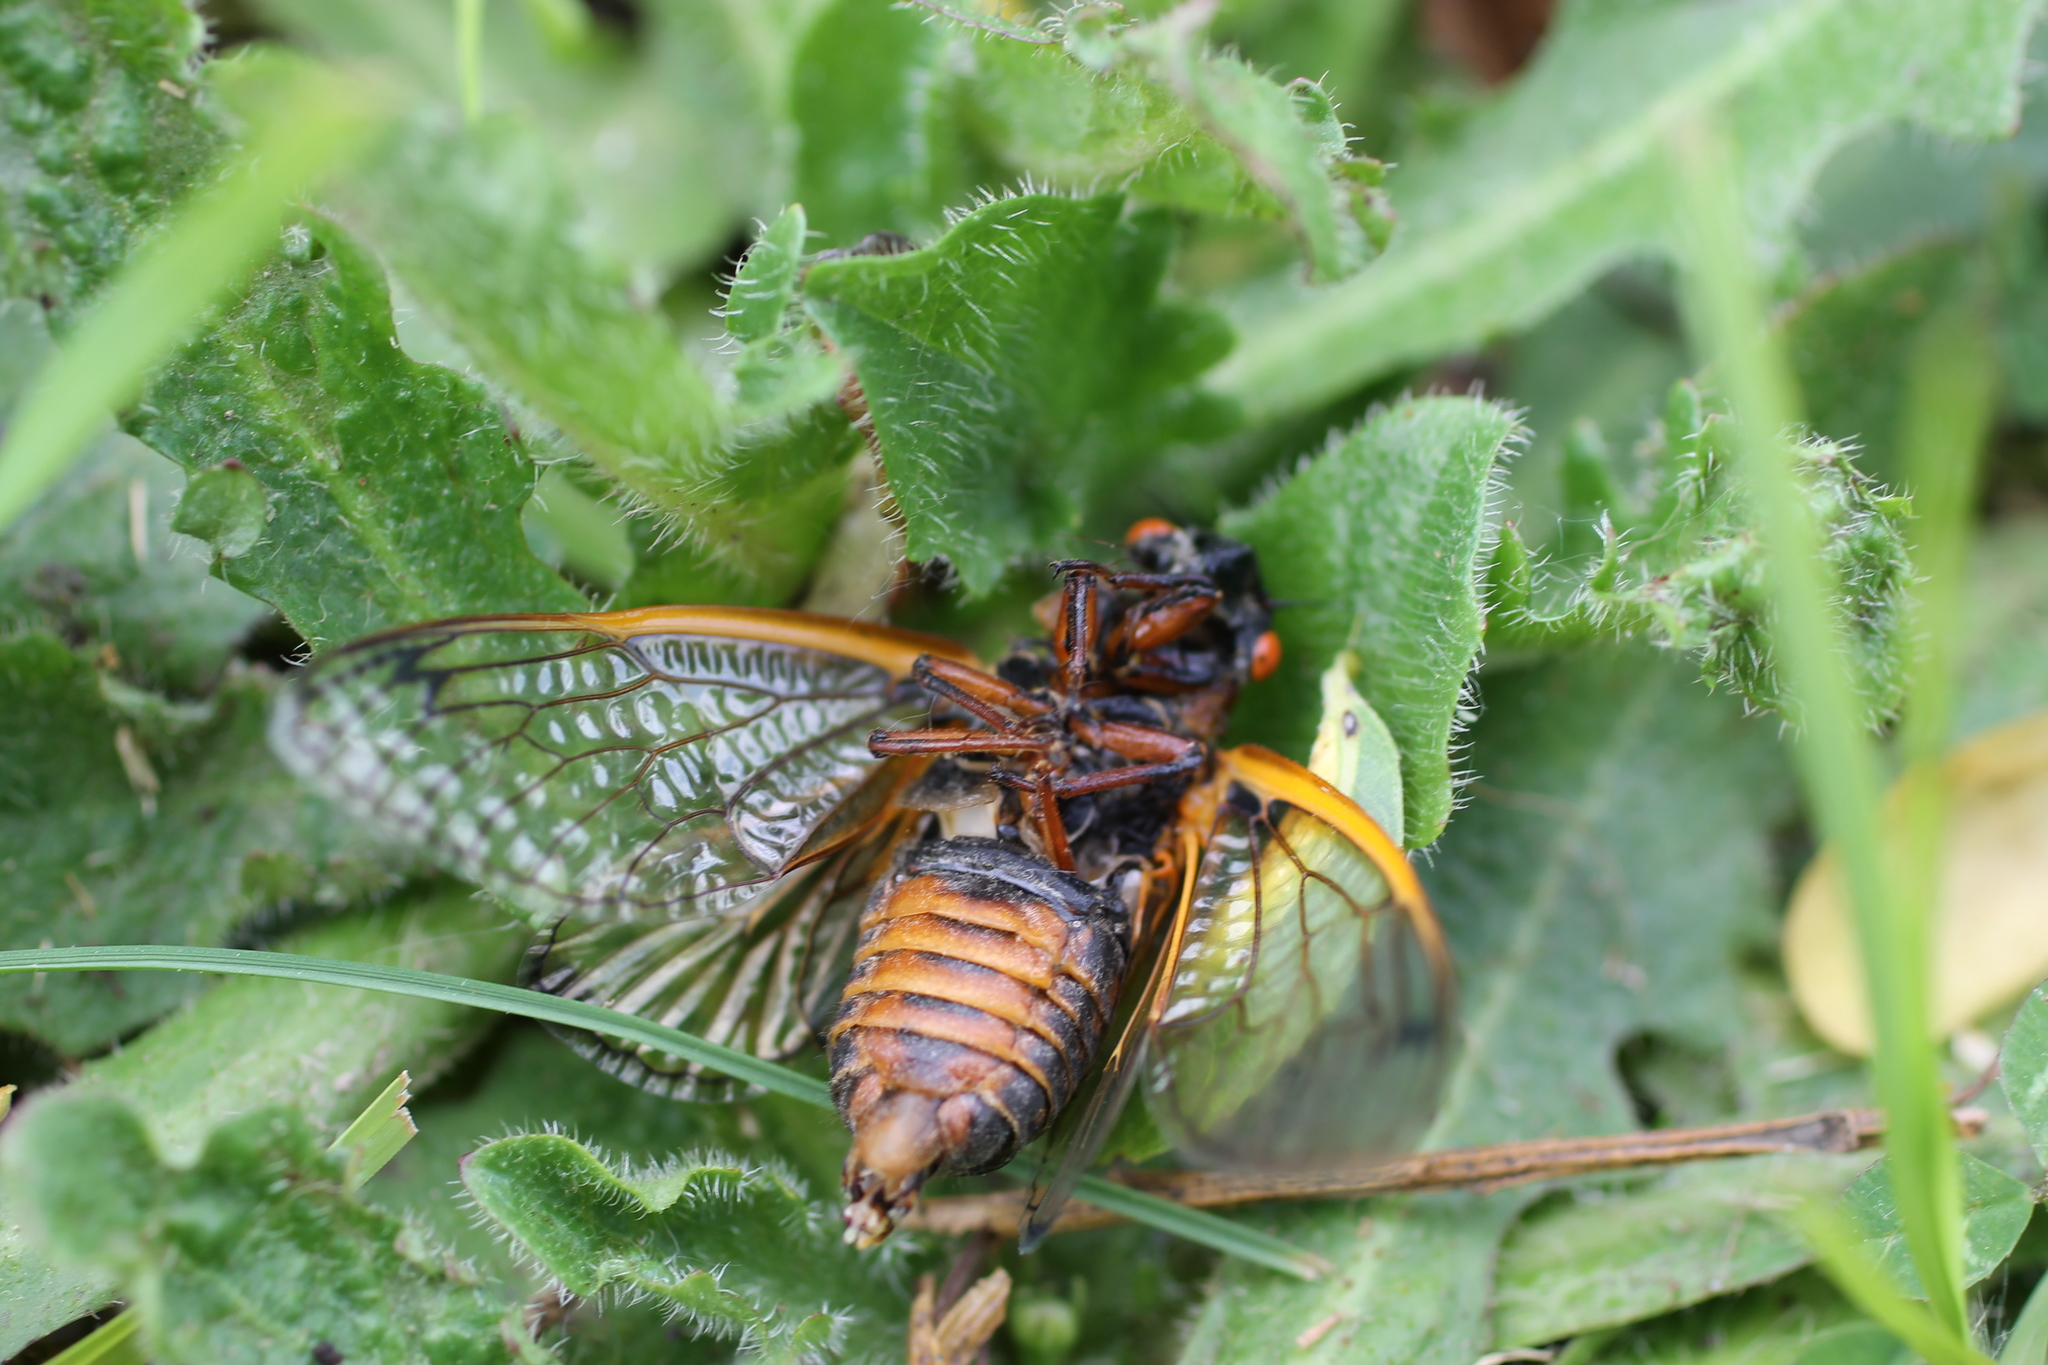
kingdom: Animalia
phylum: Arthropoda
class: Insecta
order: Hemiptera
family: Cicadidae
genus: Magicicada
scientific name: Magicicada septendecim
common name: Periodical cicada
